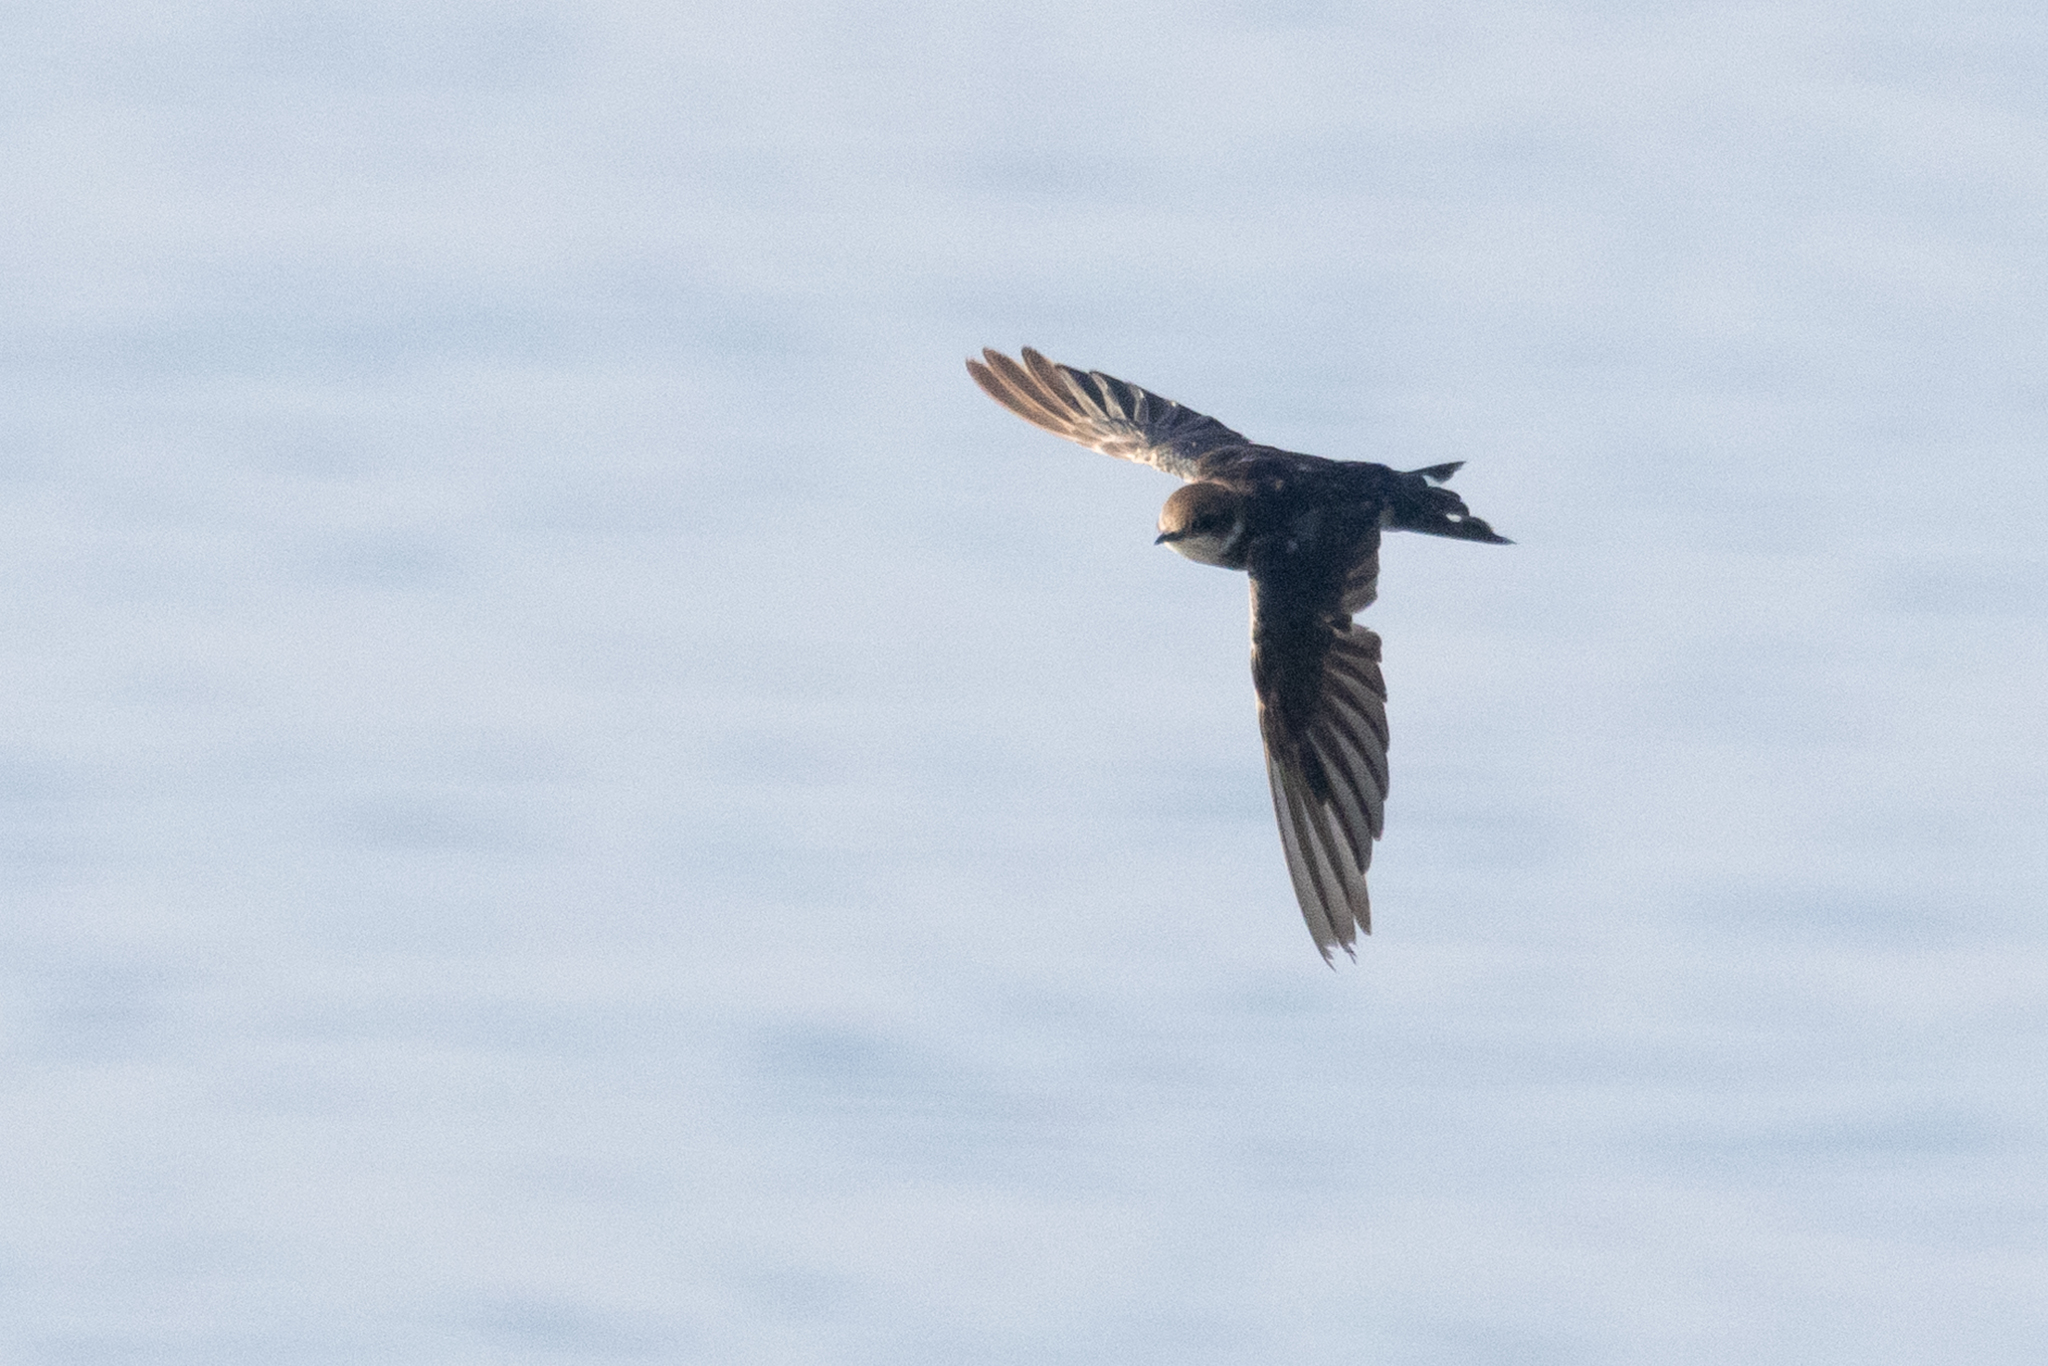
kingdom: Animalia
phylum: Chordata
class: Aves
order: Passeriformes
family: Hirundinidae
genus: Hirundo
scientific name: Hirundo rustica
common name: Barn swallow
